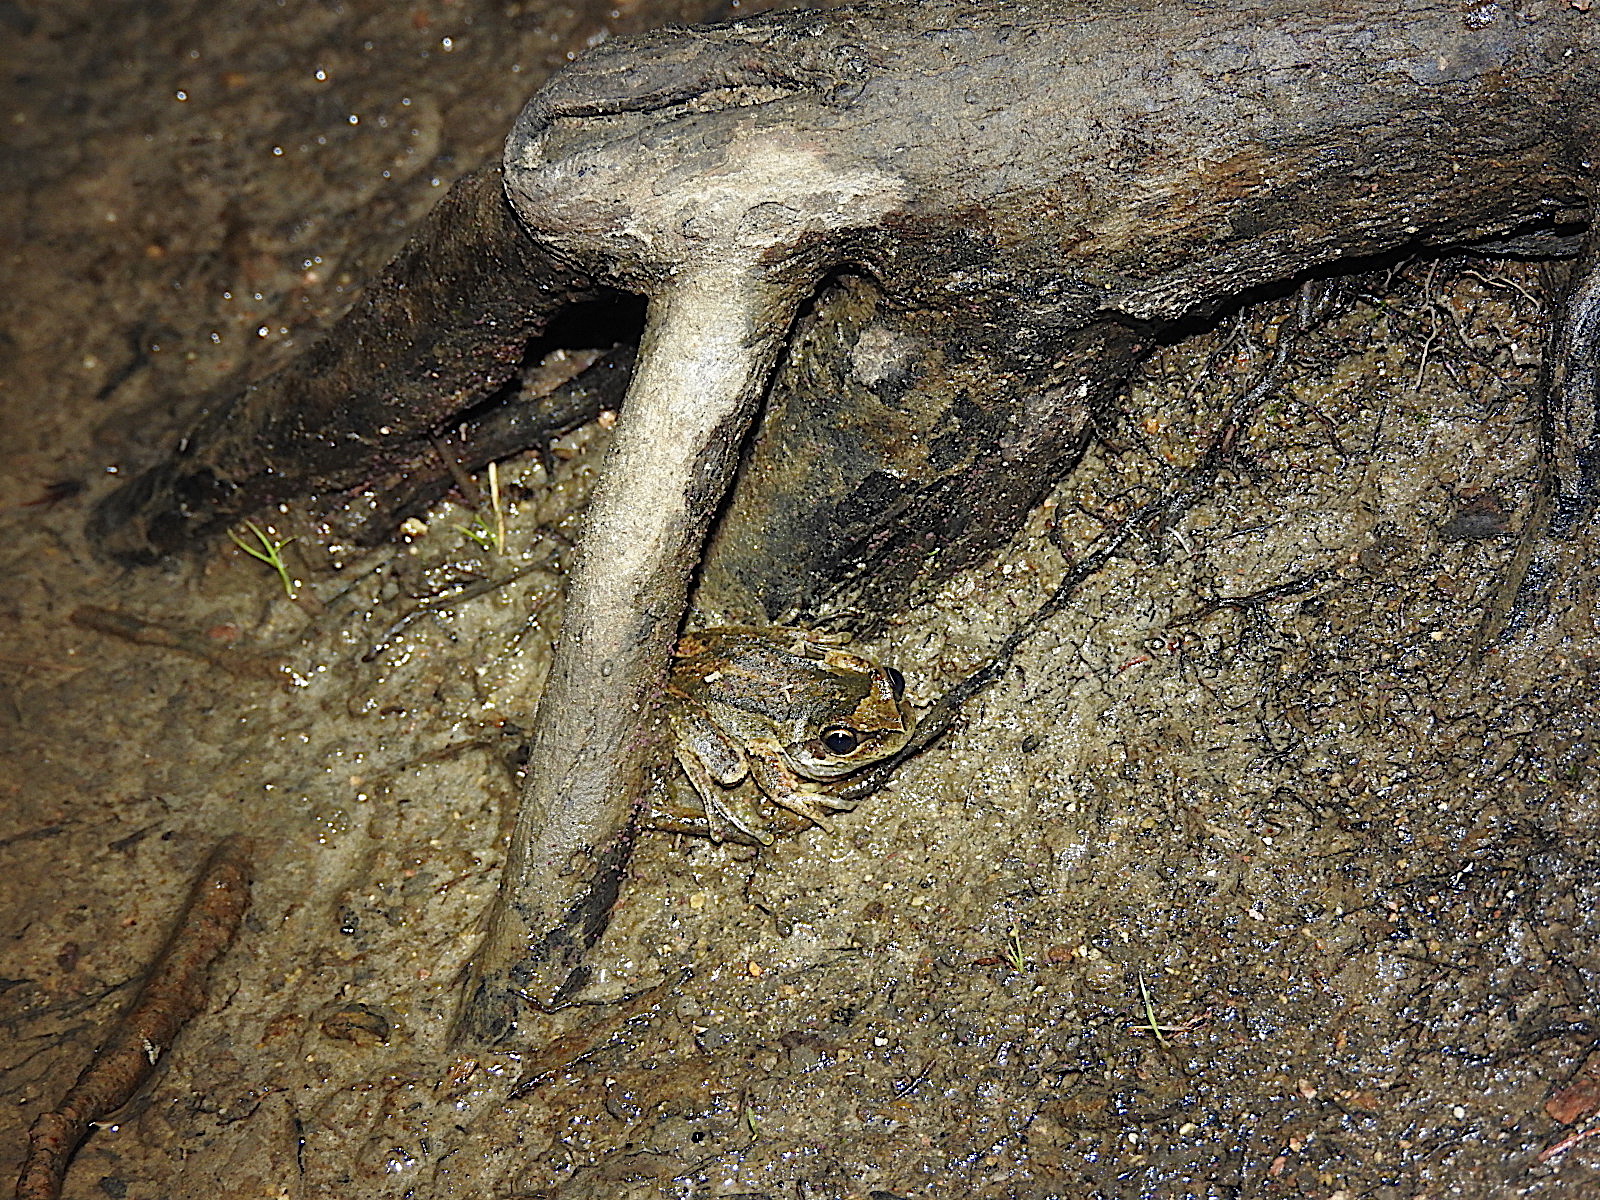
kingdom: Animalia
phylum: Chordata
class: Amphibia
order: Anura
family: Pelodryadidae
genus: Litoria
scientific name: Litoria ewingii
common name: Southern brown tree frog
